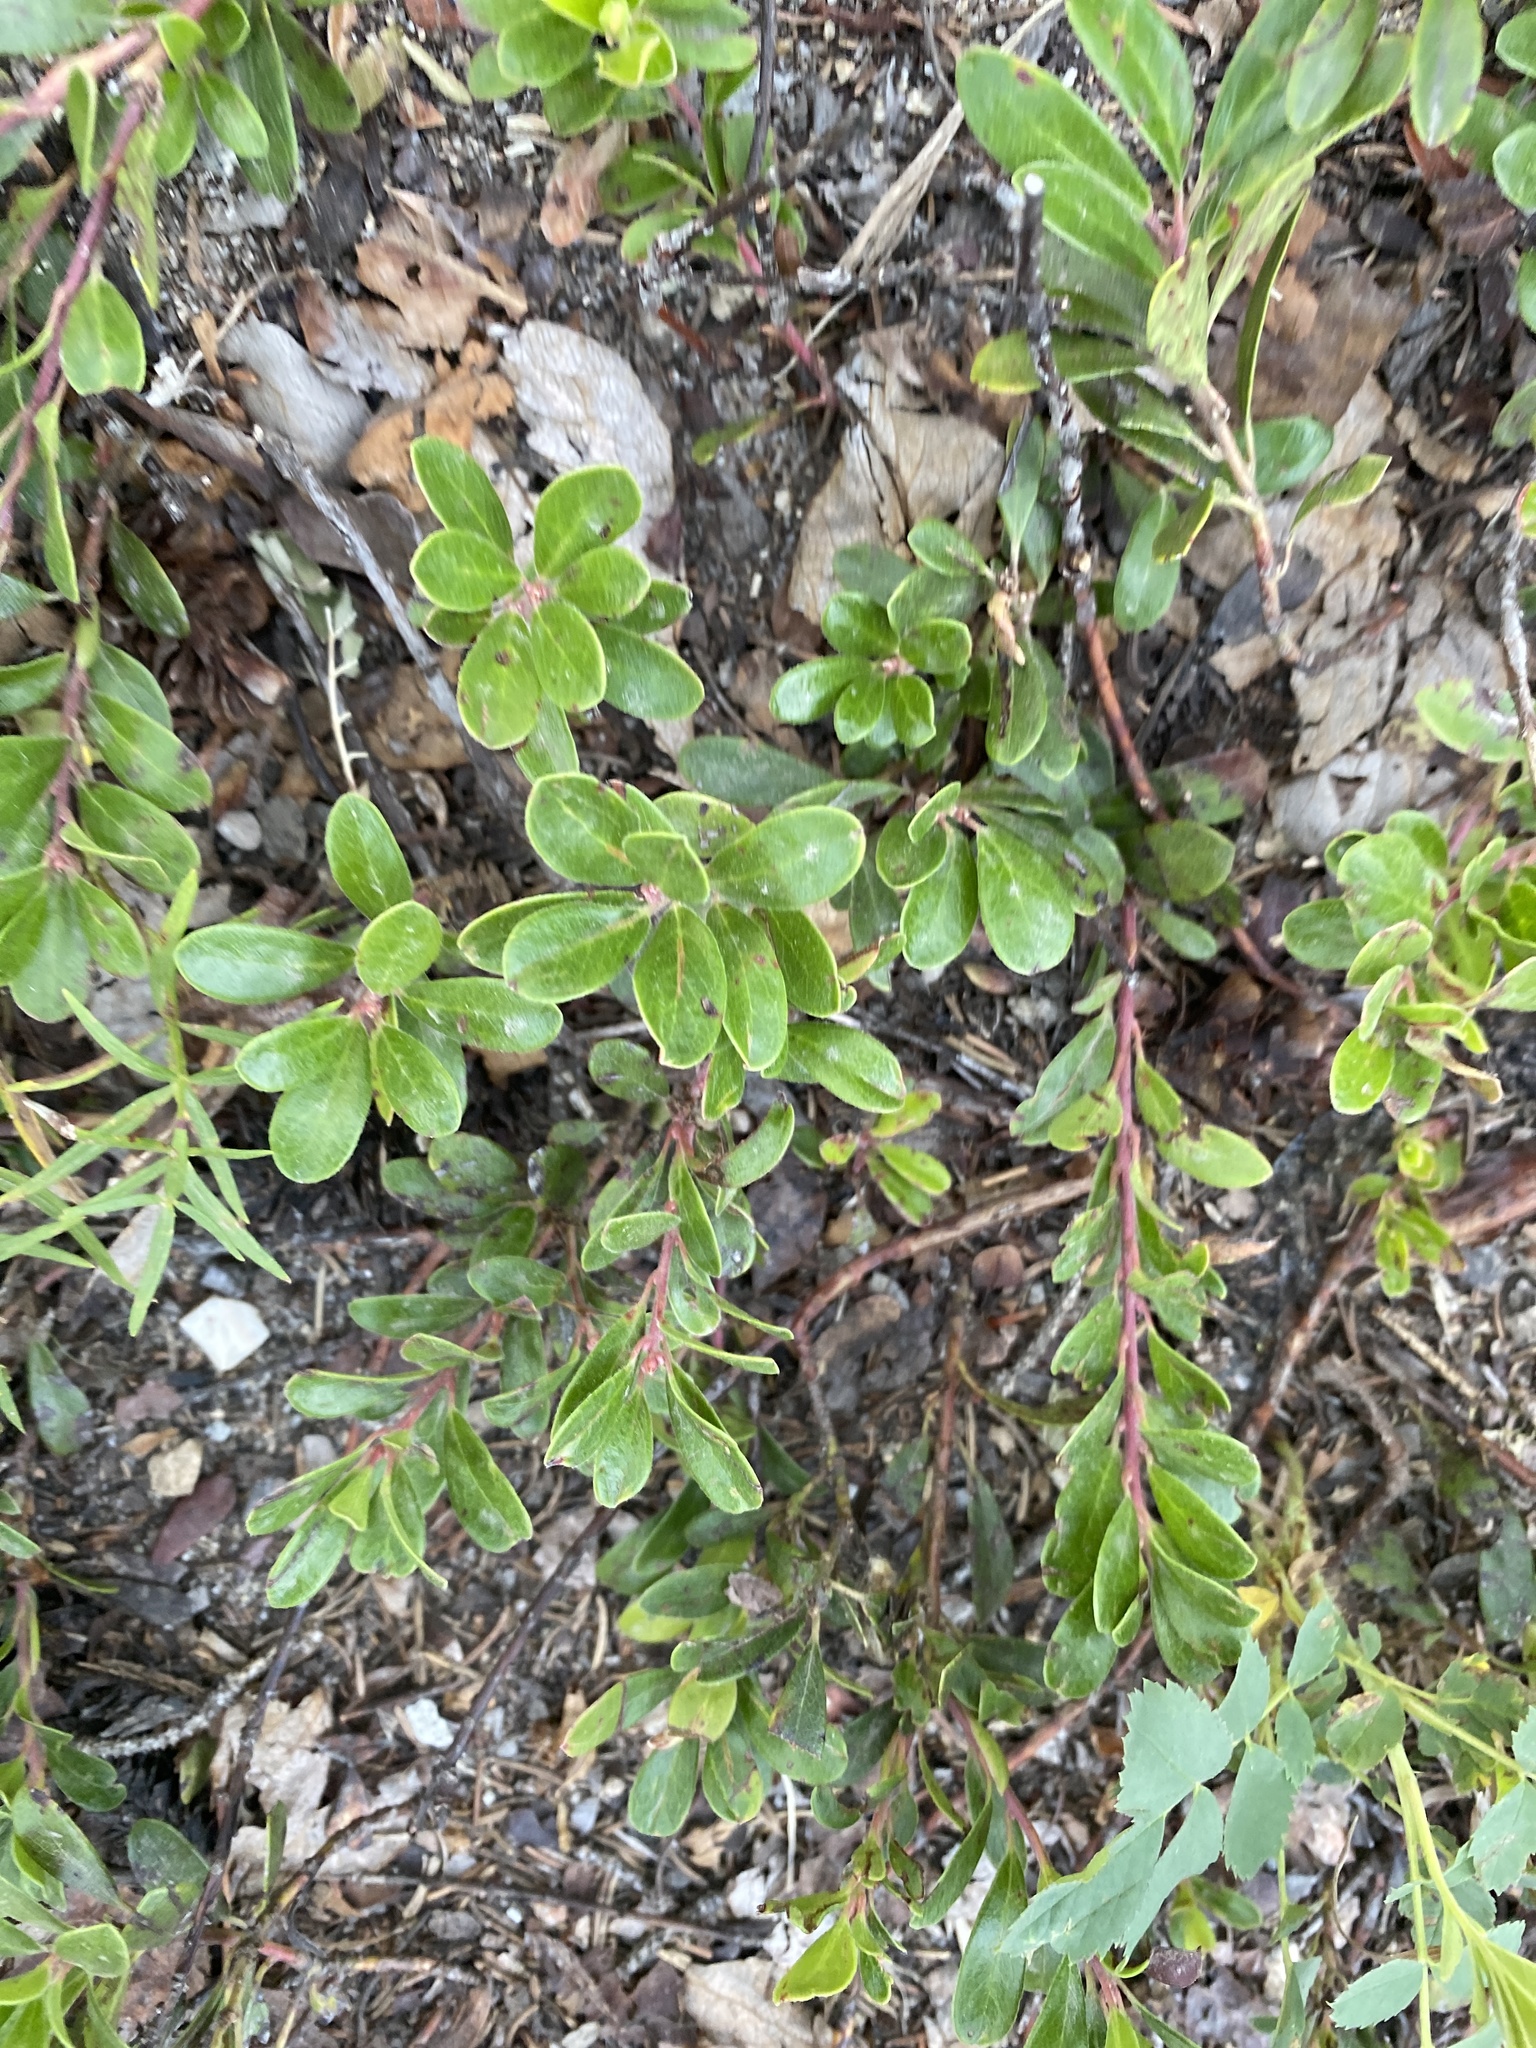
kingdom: Plantae
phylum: Tracheophyta
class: Magnoliopsida
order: Ericales
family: Ericaceae
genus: Arctostaphylos
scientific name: Arctostaphylos uva-ursi
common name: Bearberry
